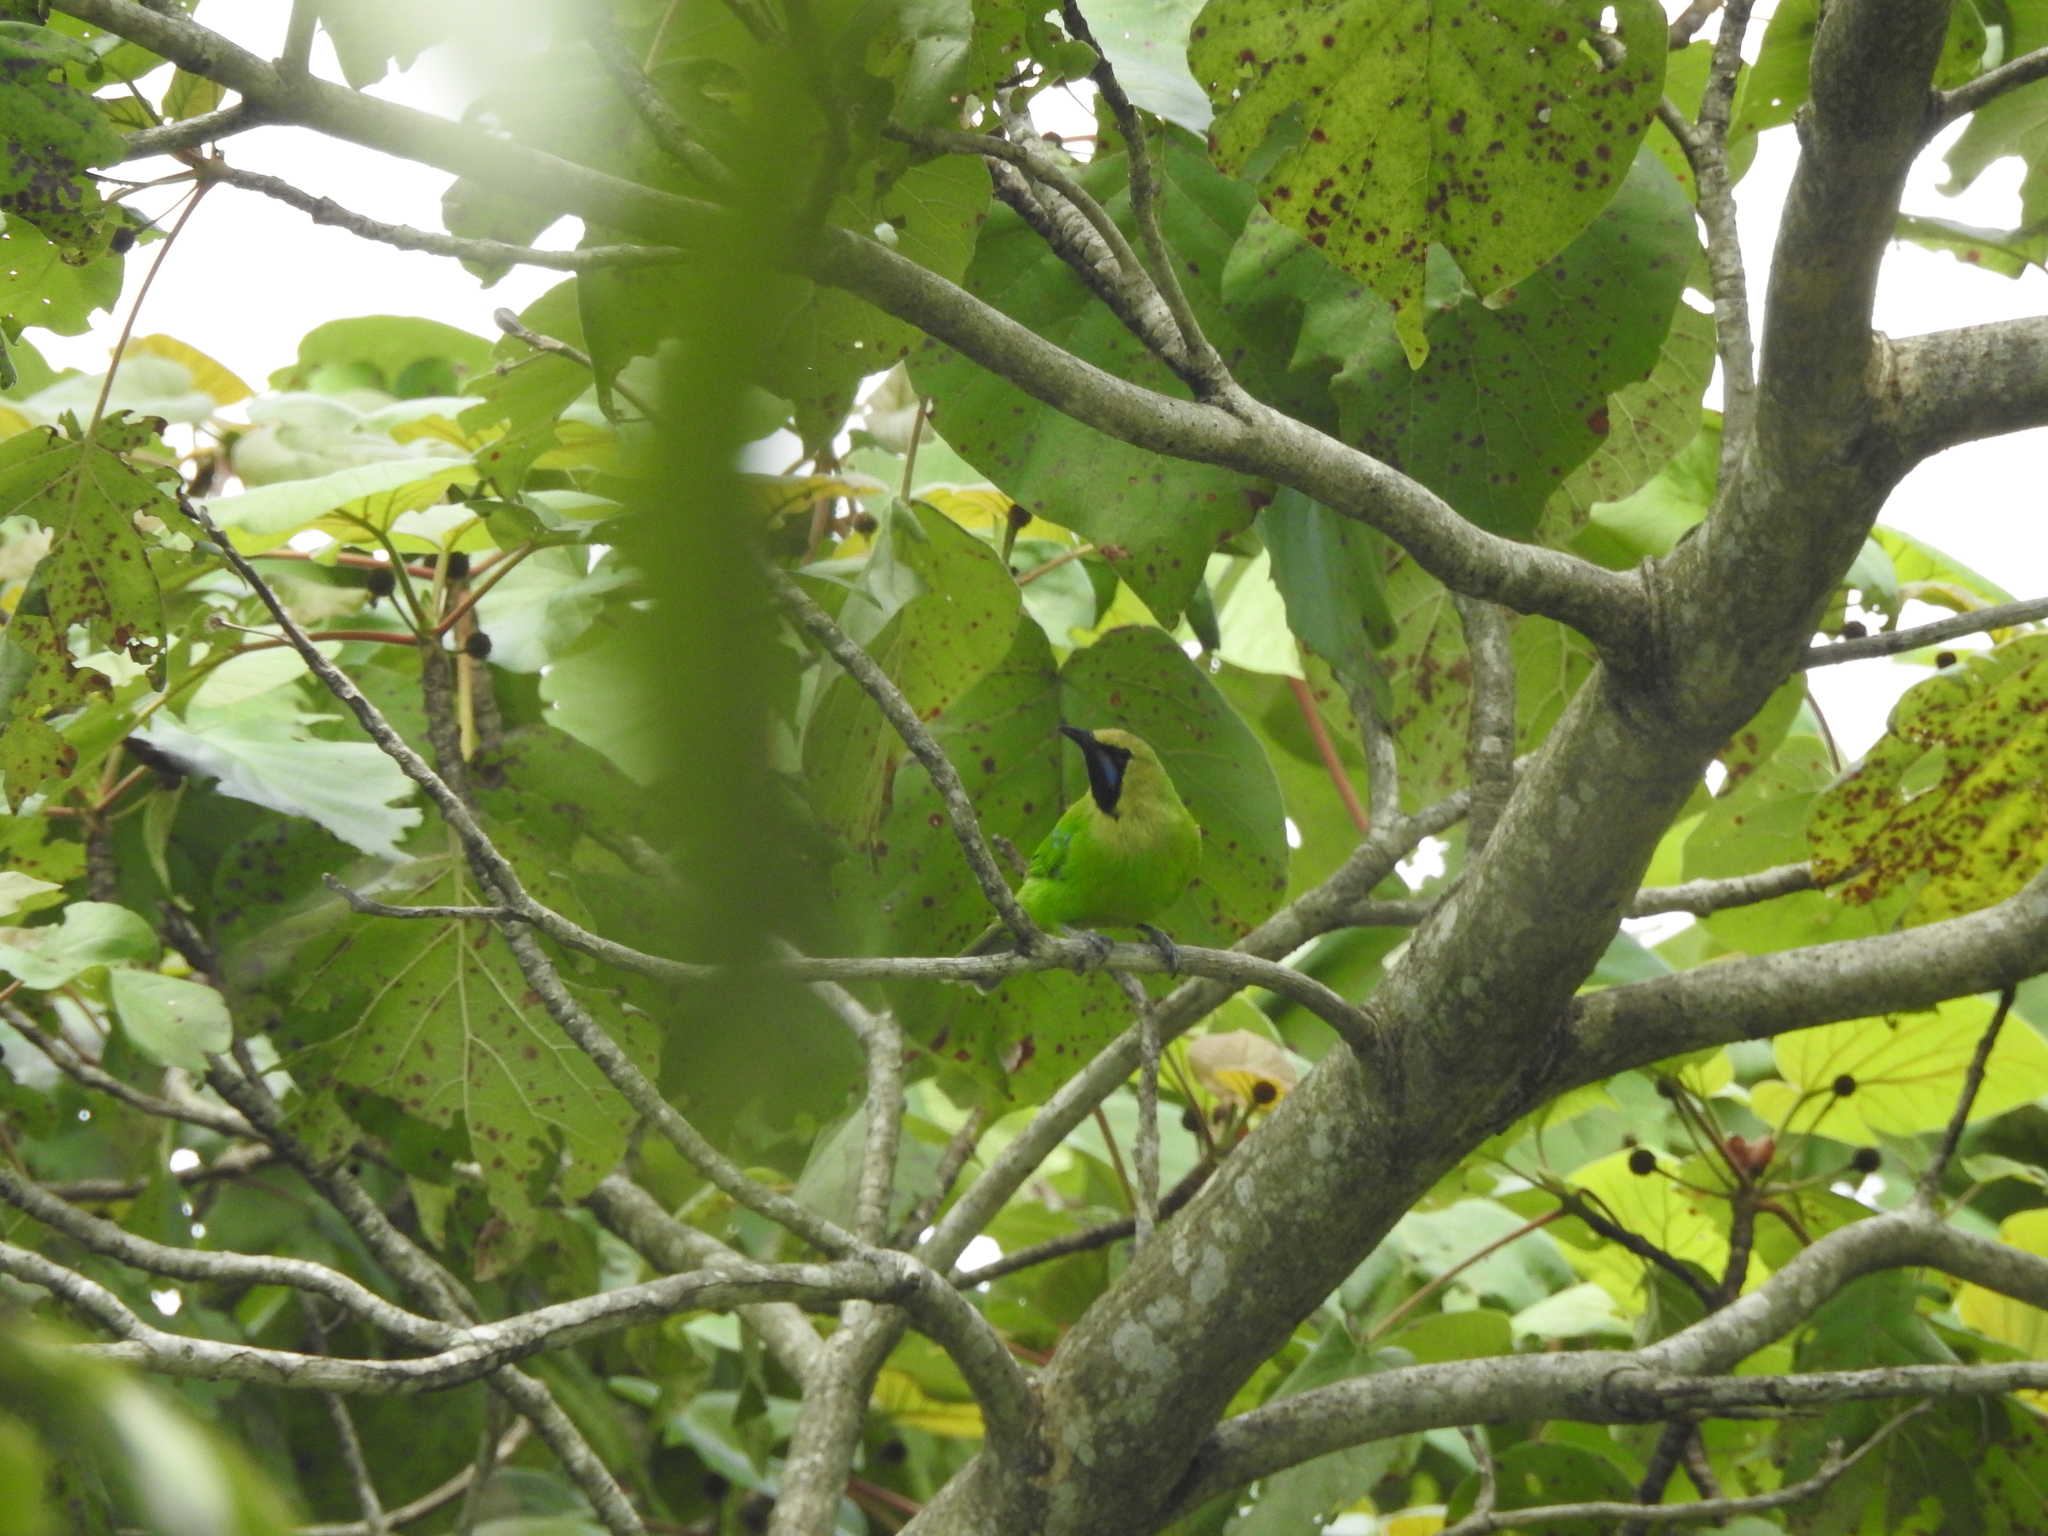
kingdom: Animalia
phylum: Chordata
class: Aves
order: Passeriformes
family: Chloropseidae
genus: Chloropsis
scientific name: Chloropsis jerdoni
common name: Jerdon's leafbird
